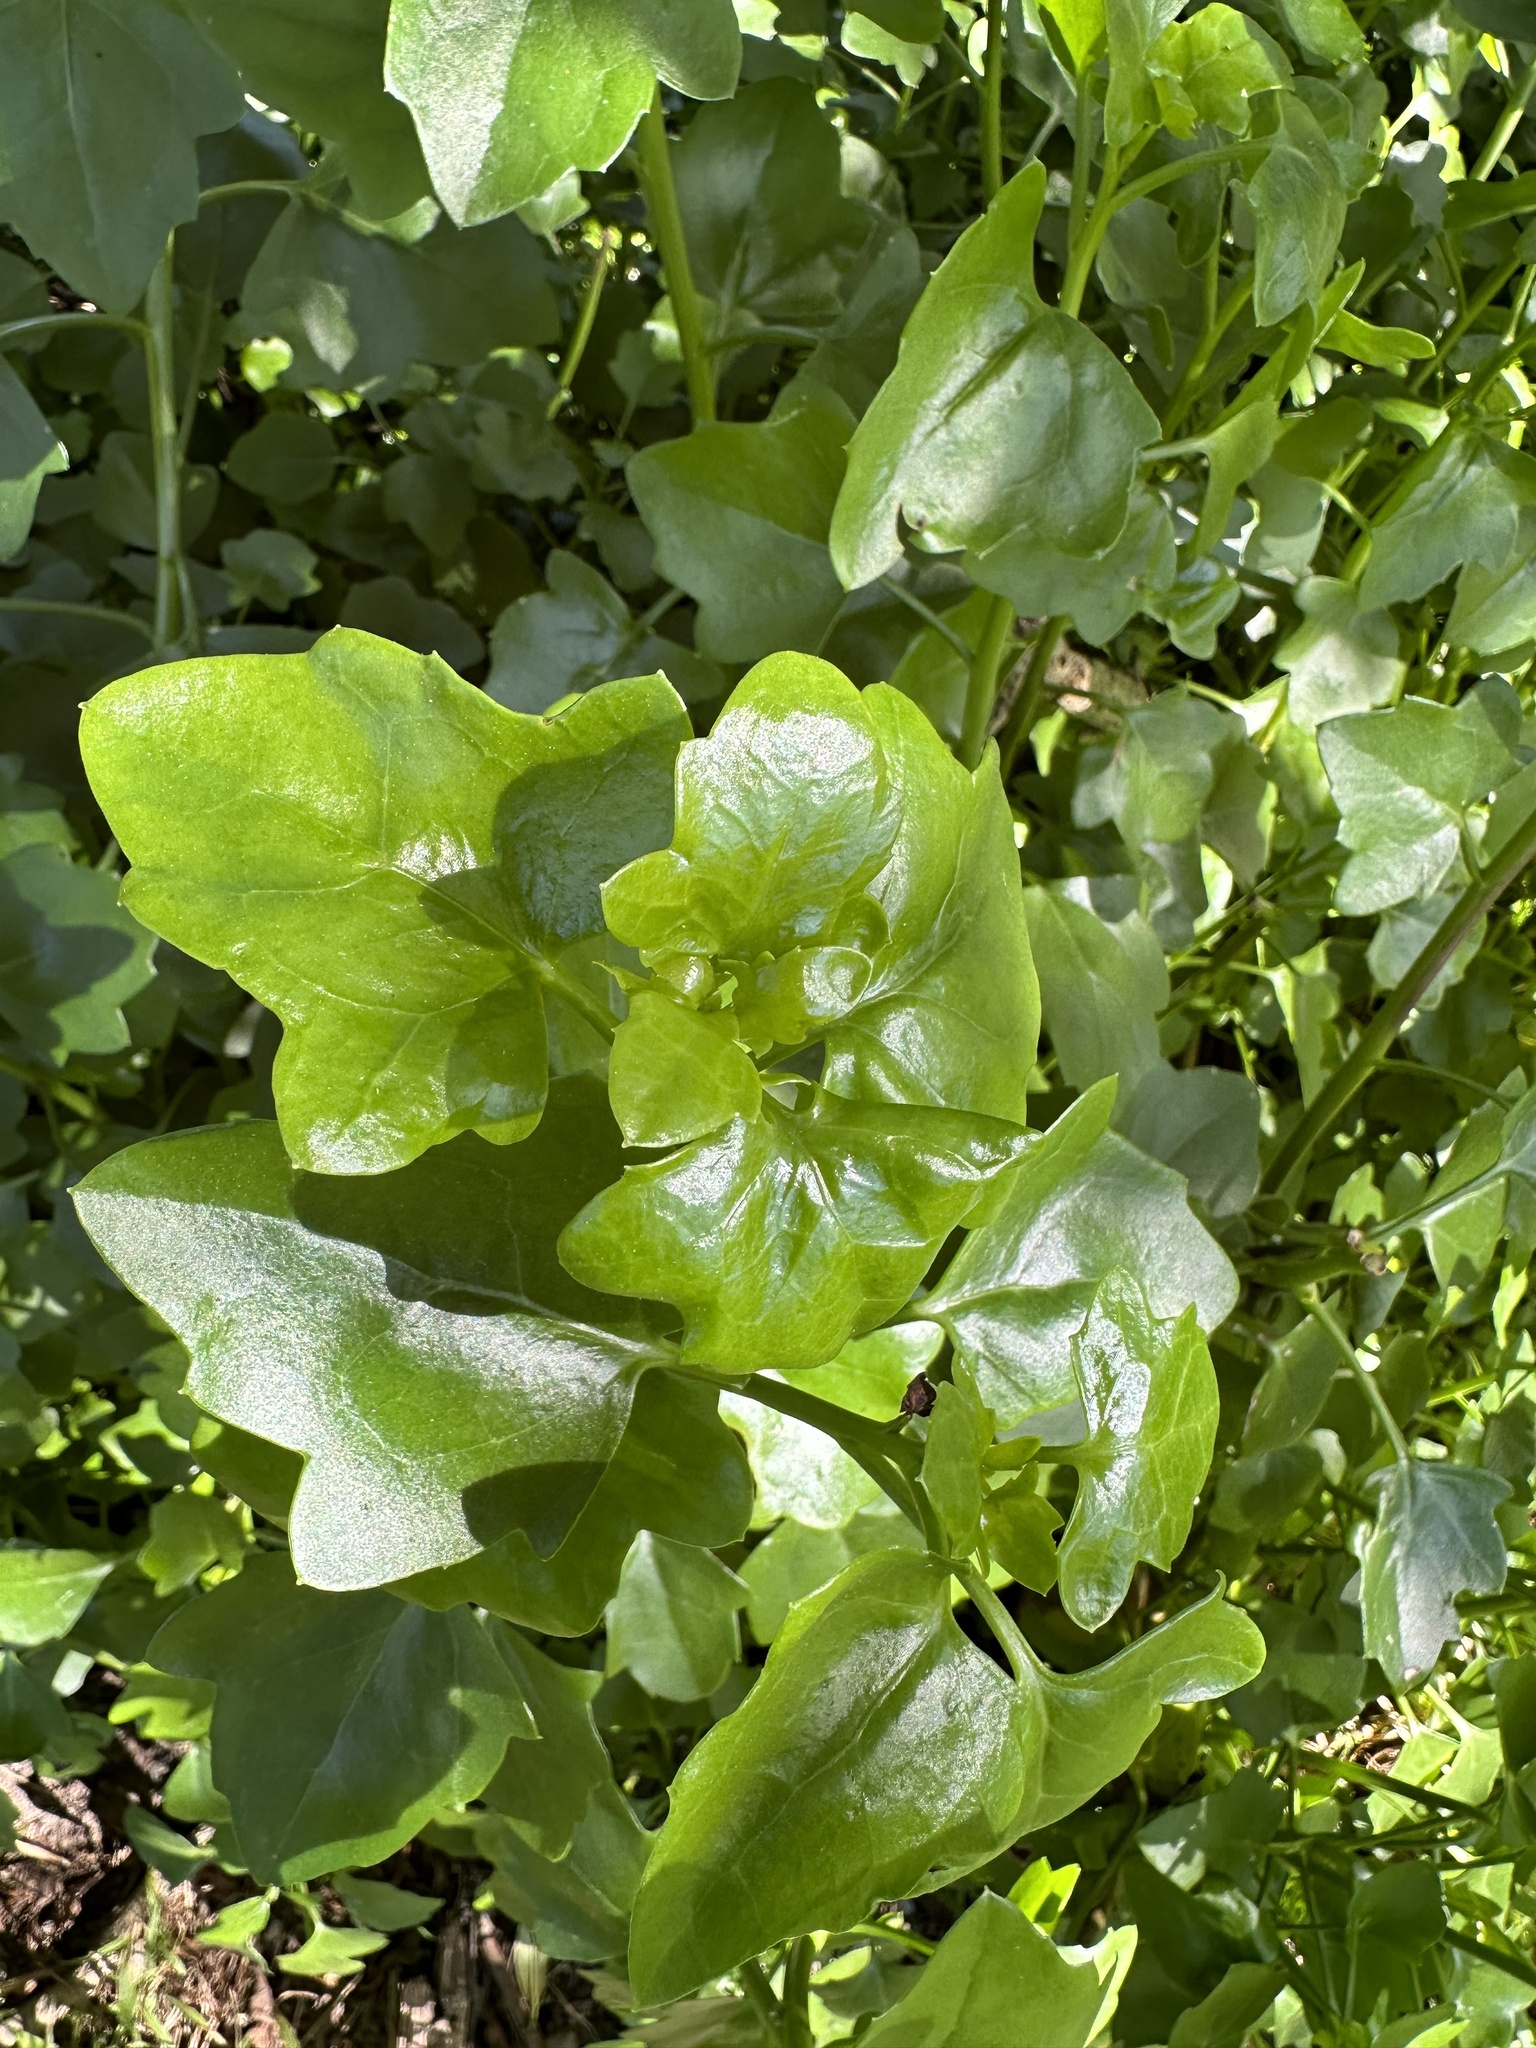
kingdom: Plantae
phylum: Tracheophyta
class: Magnoliopsida
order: Asterales
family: Asteraceae
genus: Senecio
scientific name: Senecio angulatus
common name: Climbing groundsel
